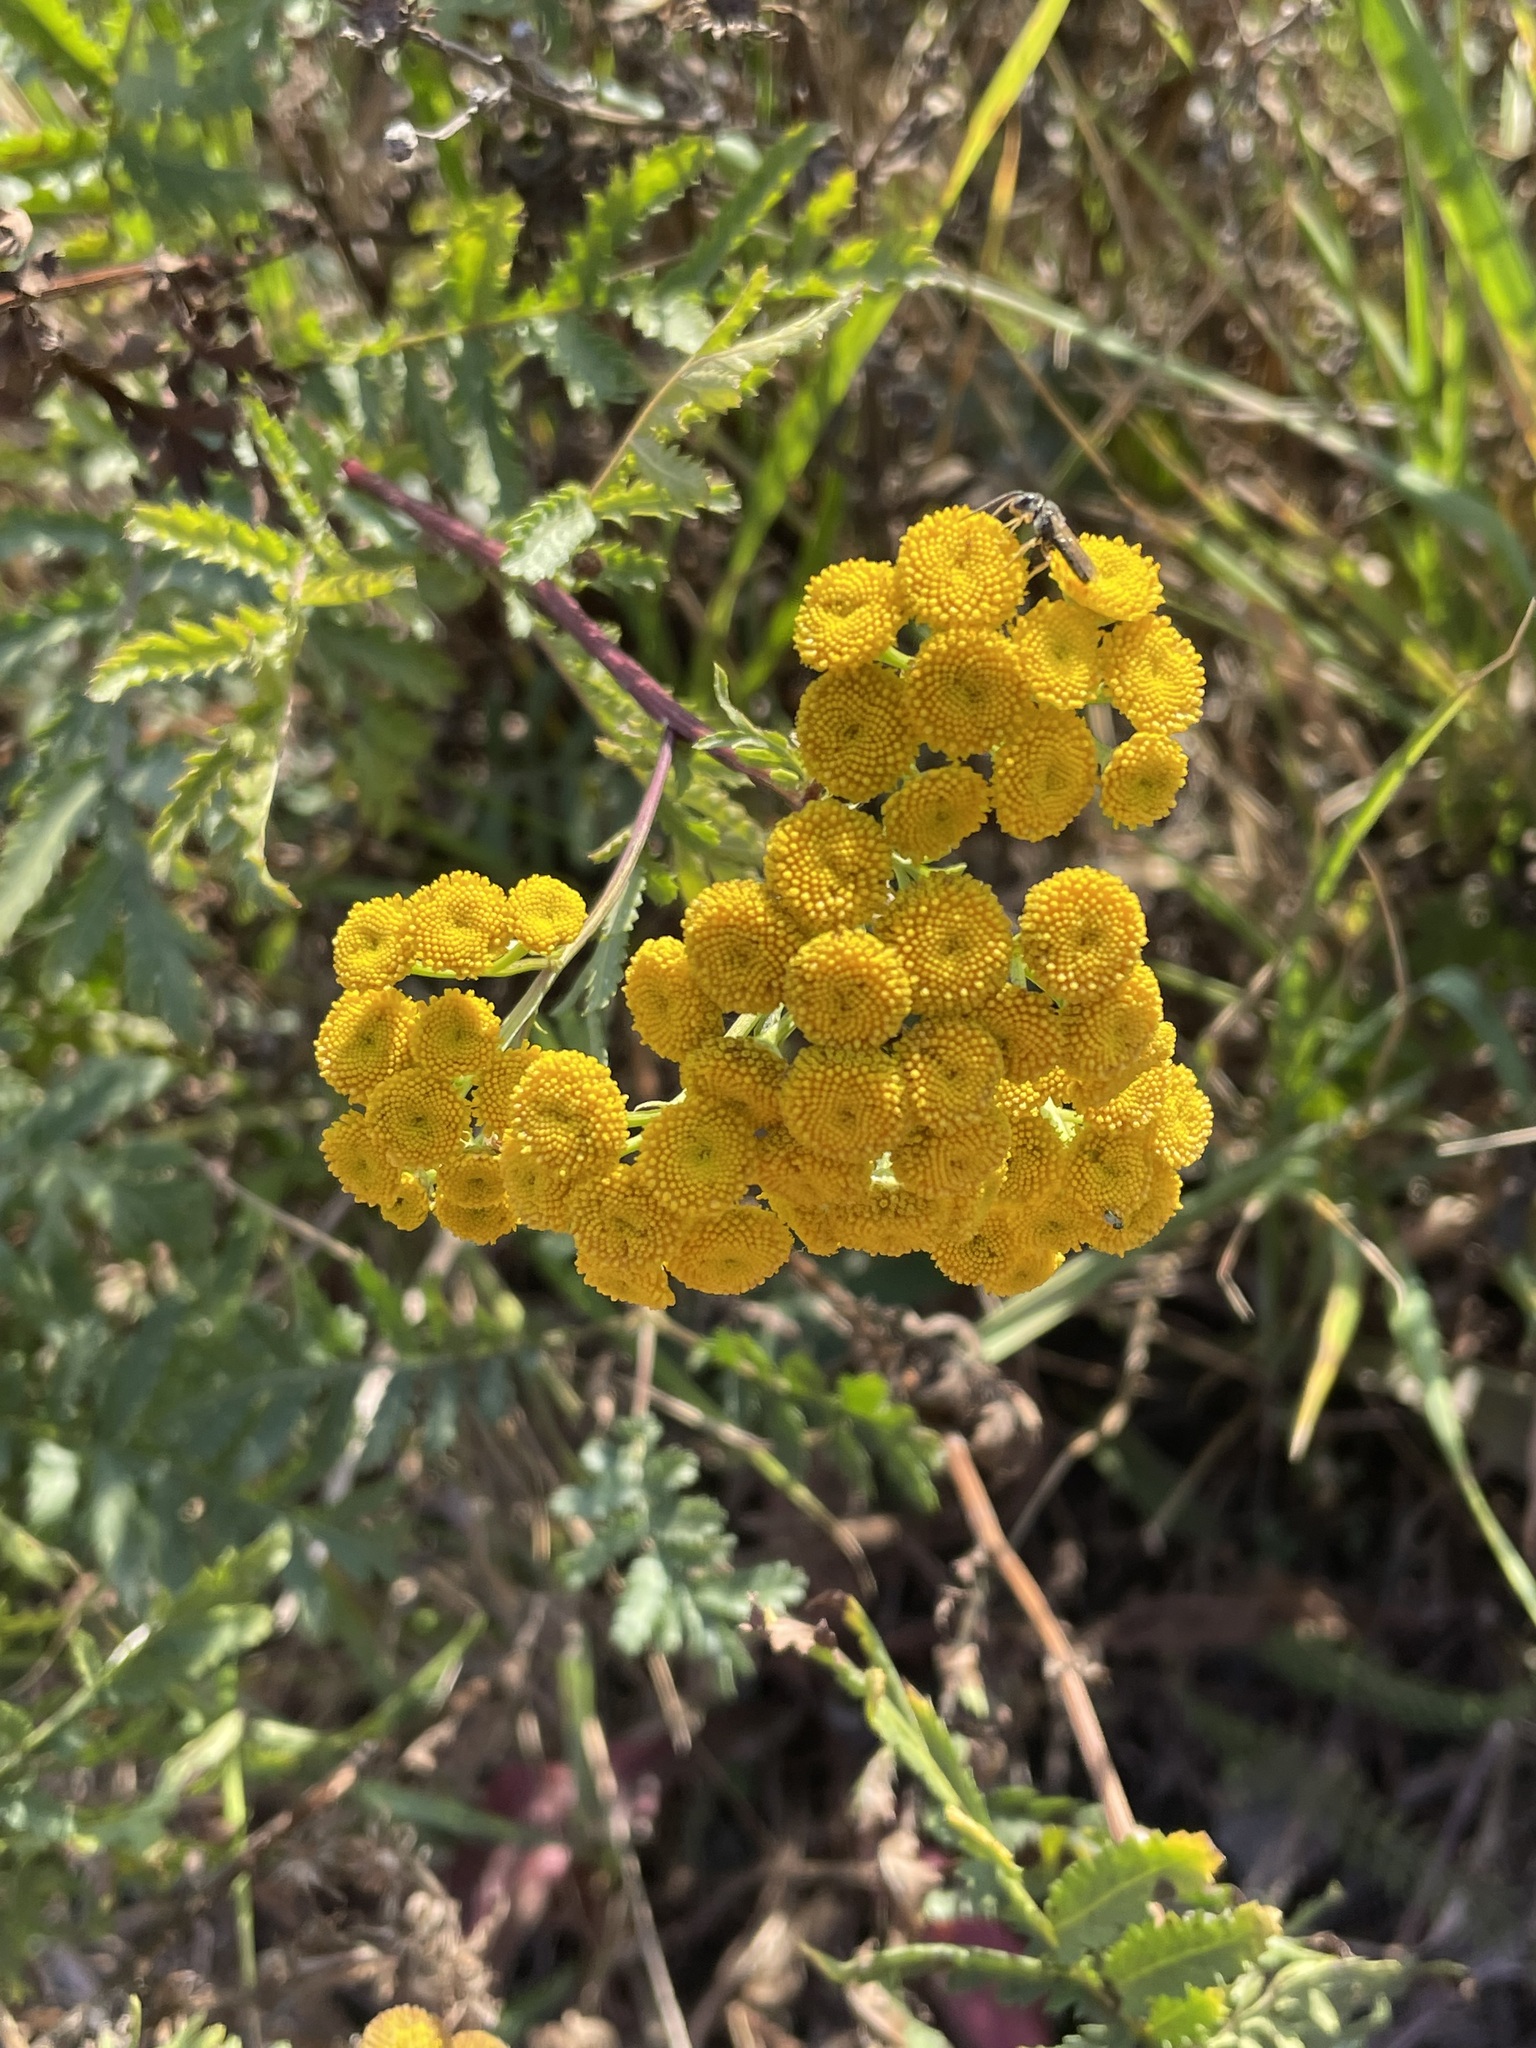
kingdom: Plantae
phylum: Tracheophyta
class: Magnoliopsida
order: Asterales
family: Asteraceae
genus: Tanacetum
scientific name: Tanacetum vulgare
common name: Common tansy
